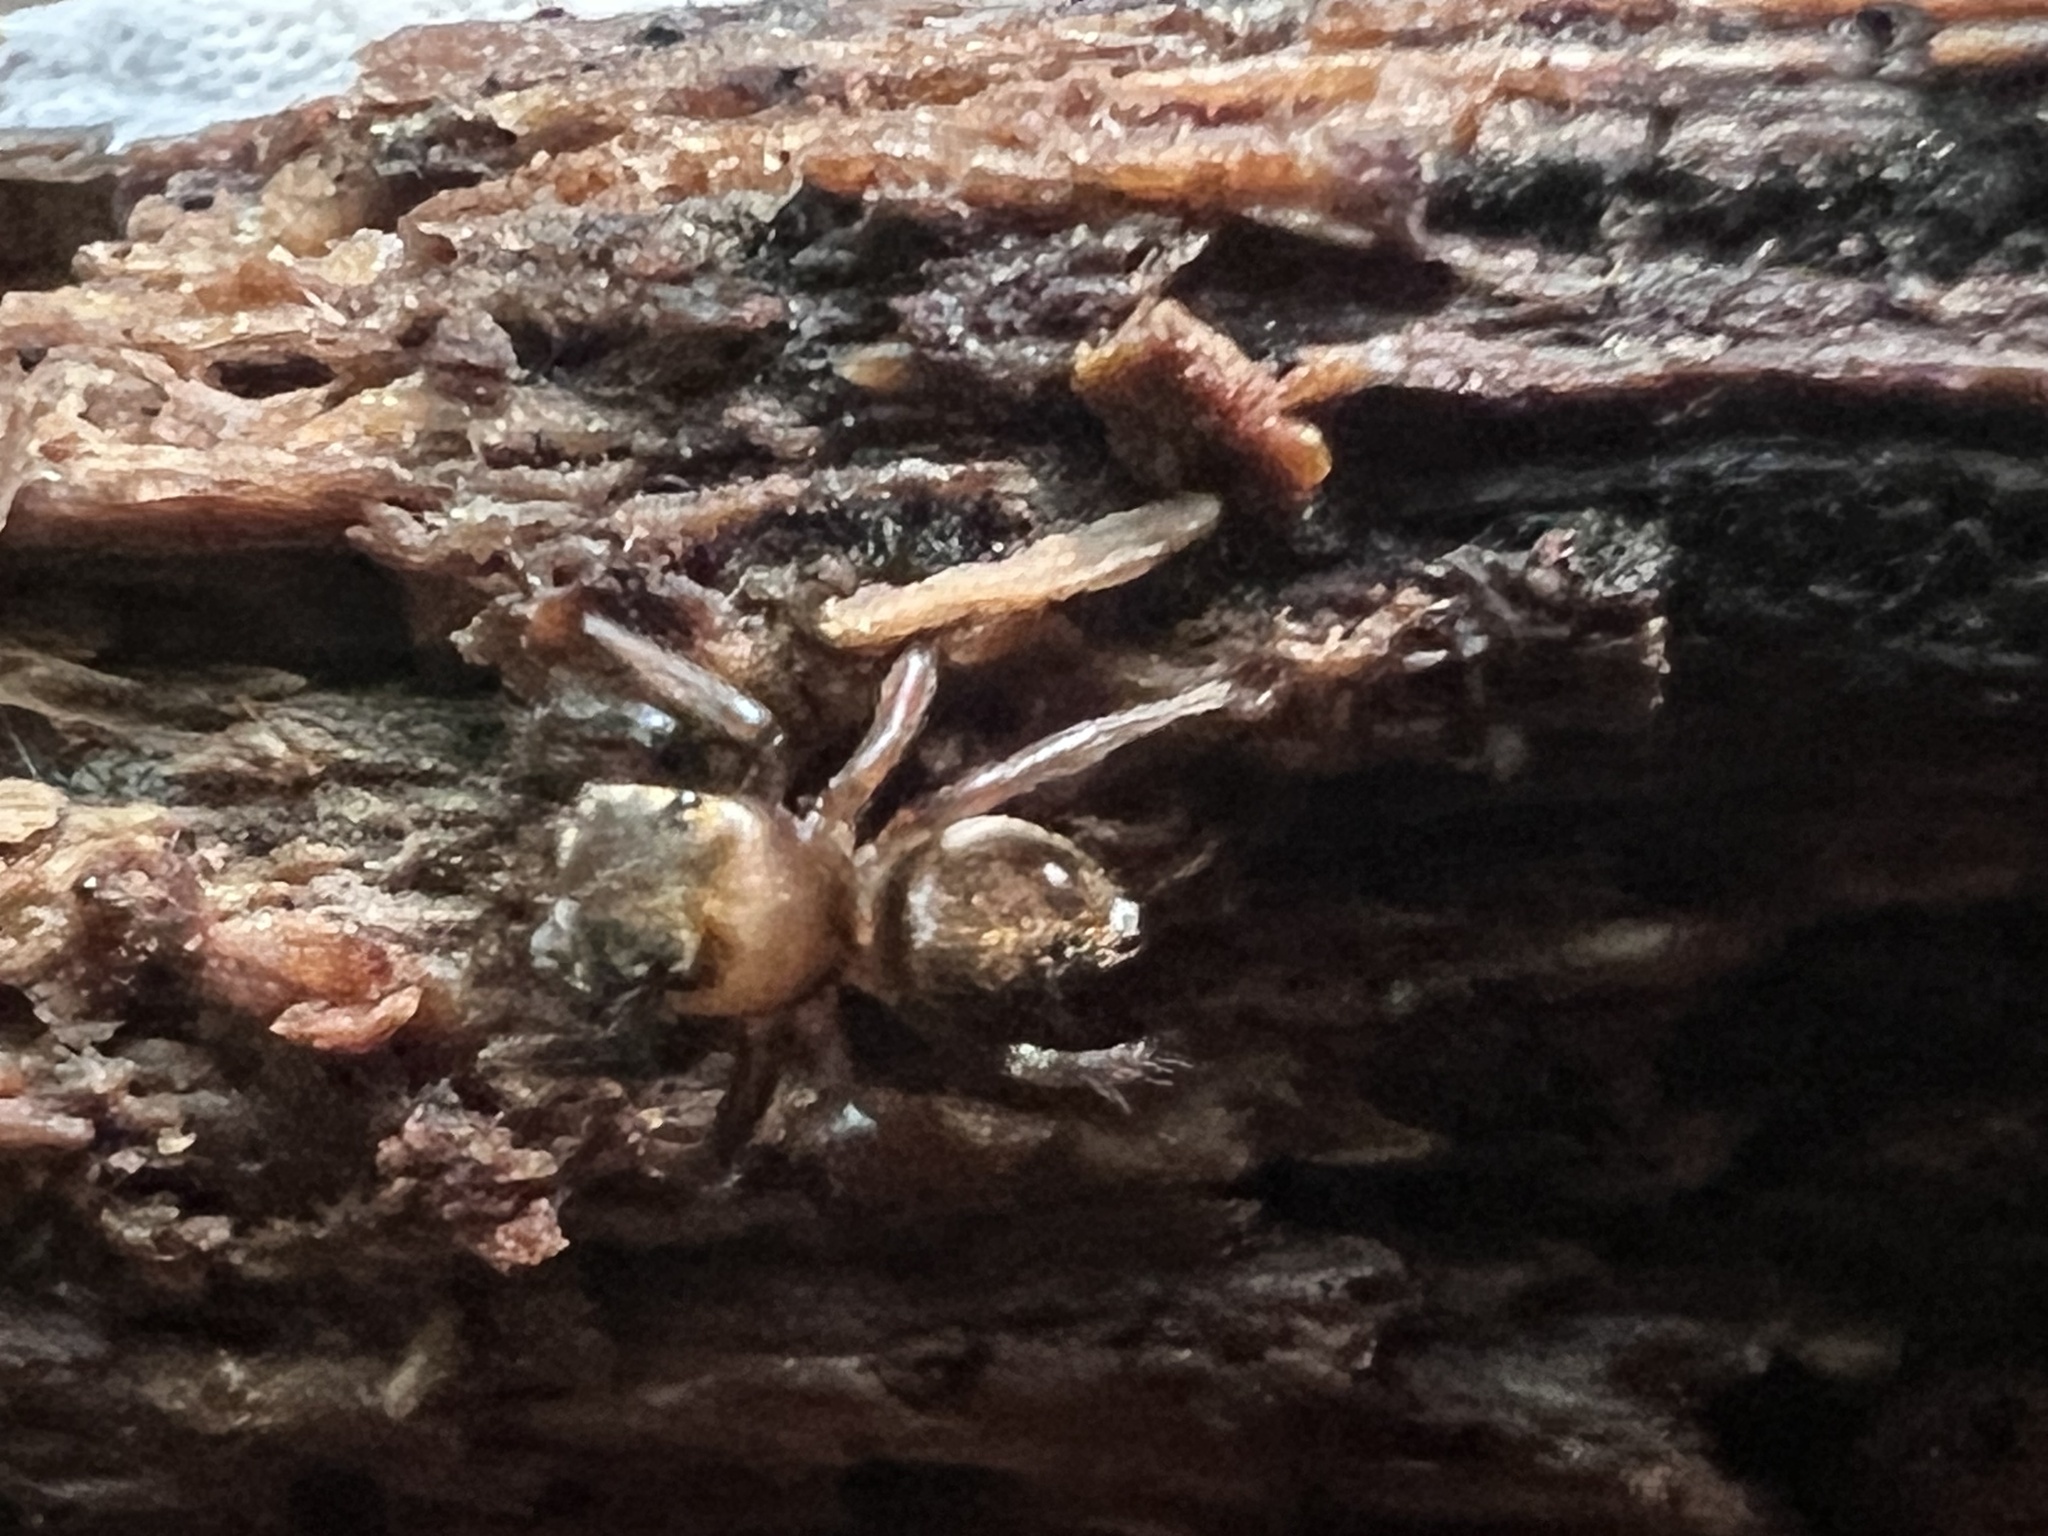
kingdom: Animalia
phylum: Arthropoda
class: Arachnida
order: Araneae
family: Salticidae
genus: Chinattus
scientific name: Chinattus parvulus
